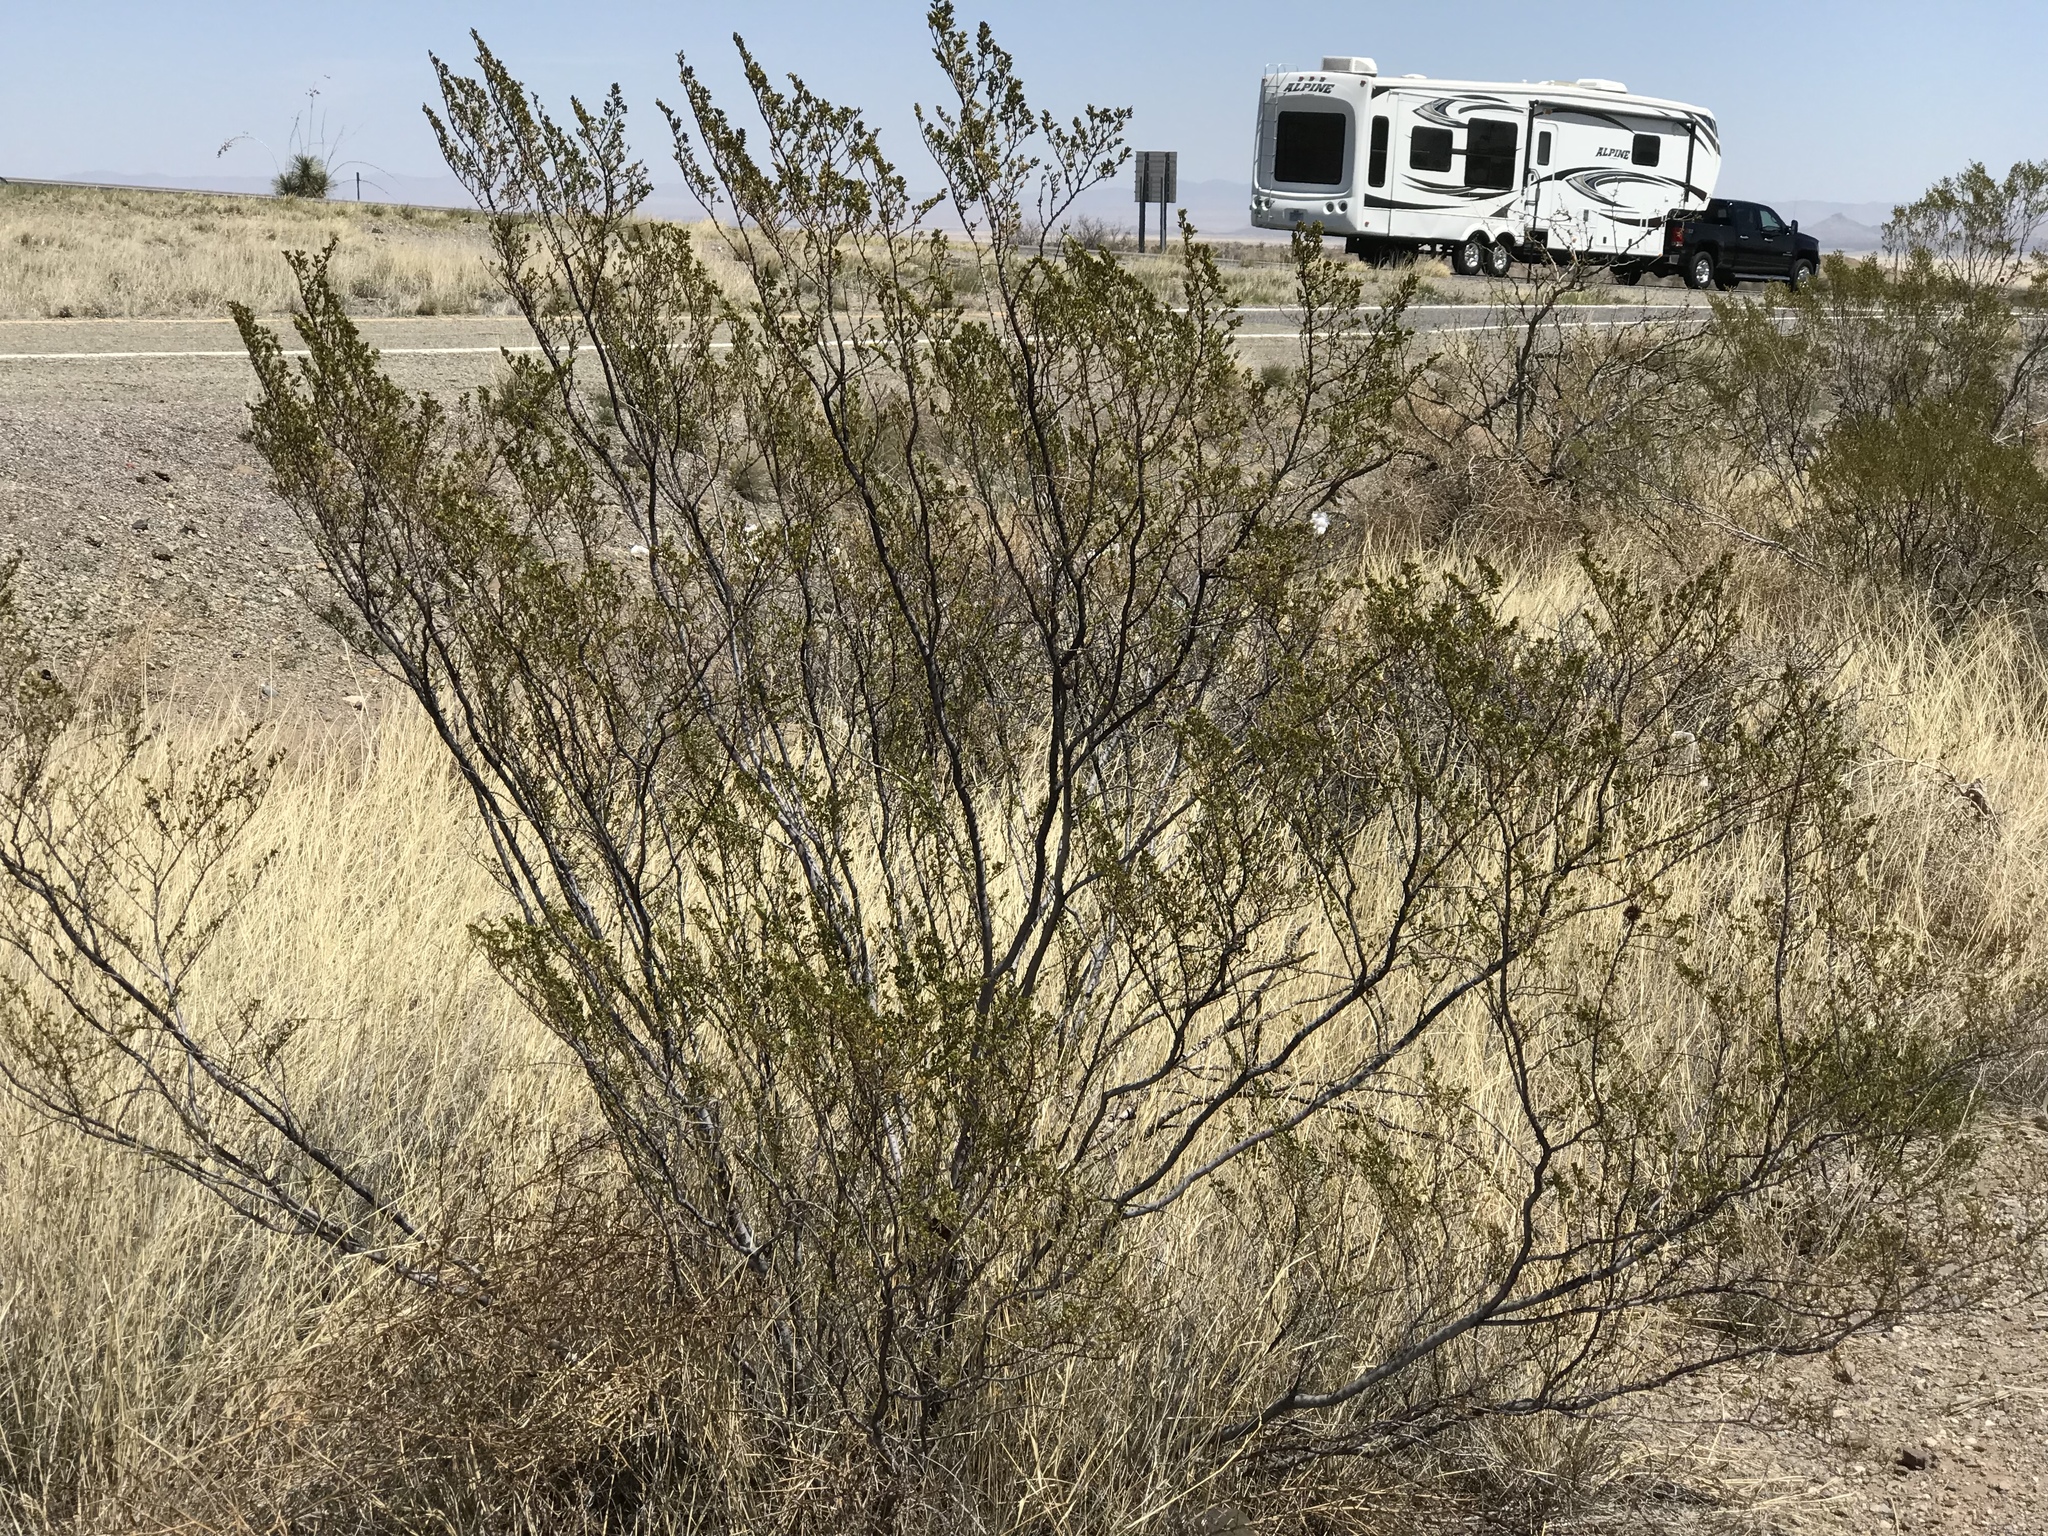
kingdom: Plantae
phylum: Tracheophyta
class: Magnoliopsida
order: Zygophyllales
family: Zygophyllaceae
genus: Larrea
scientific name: Larrea tridentata
